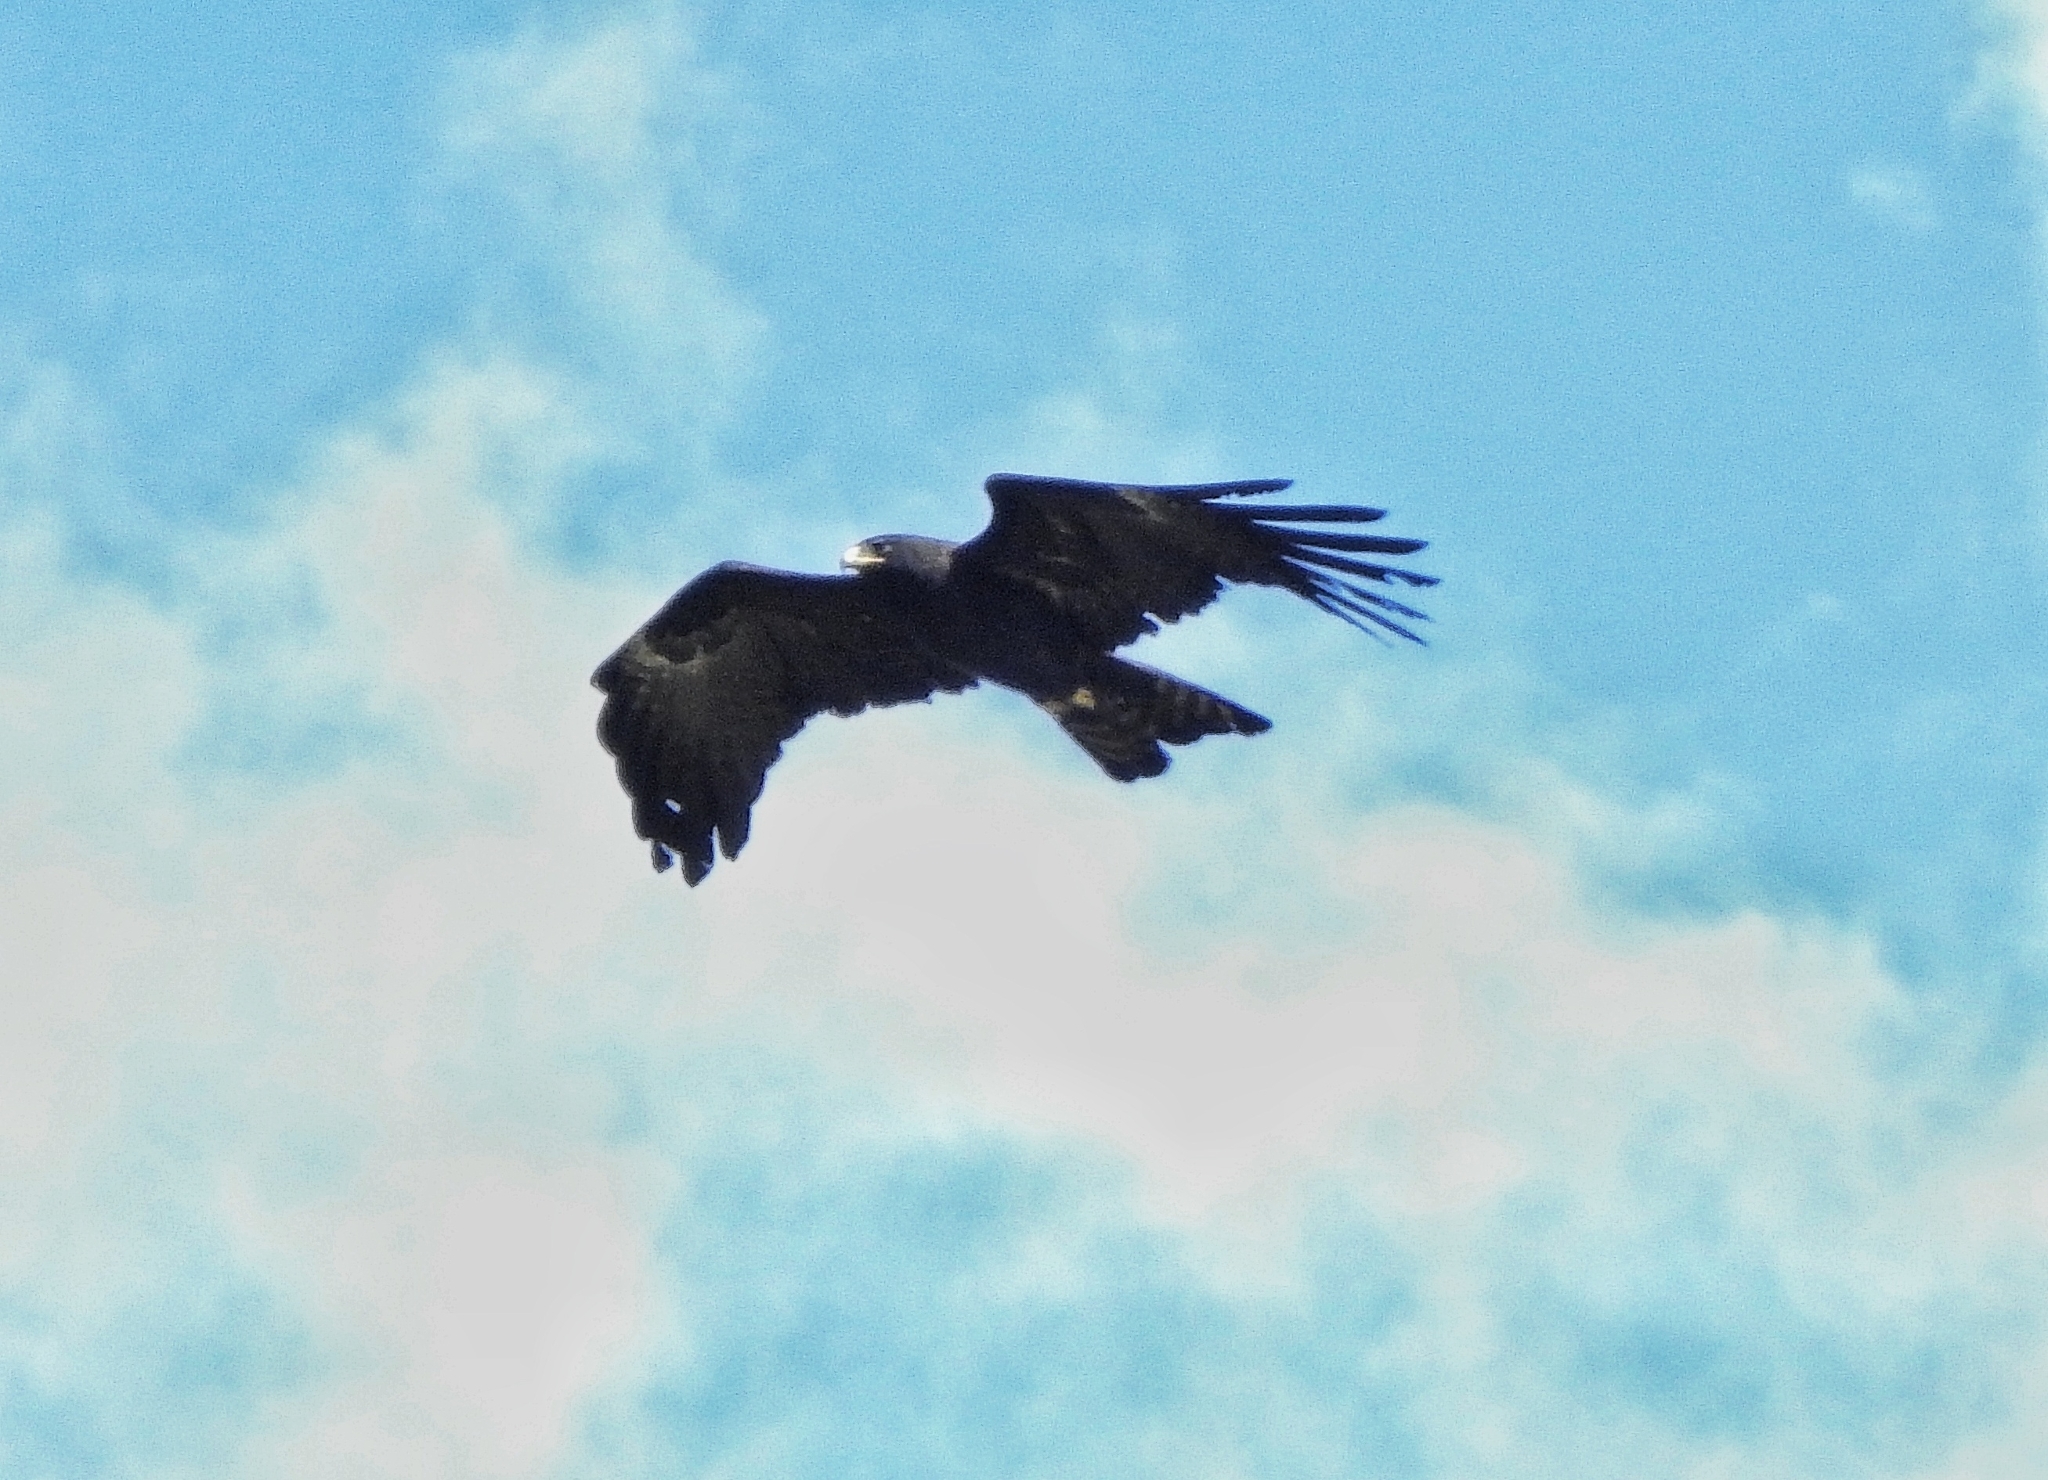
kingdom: Animalia
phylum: Chordata
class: Aves
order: Accipitriformes
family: Accipitridae
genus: Ictinaetus
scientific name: Ictinaetus malayensis
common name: Black eagle
